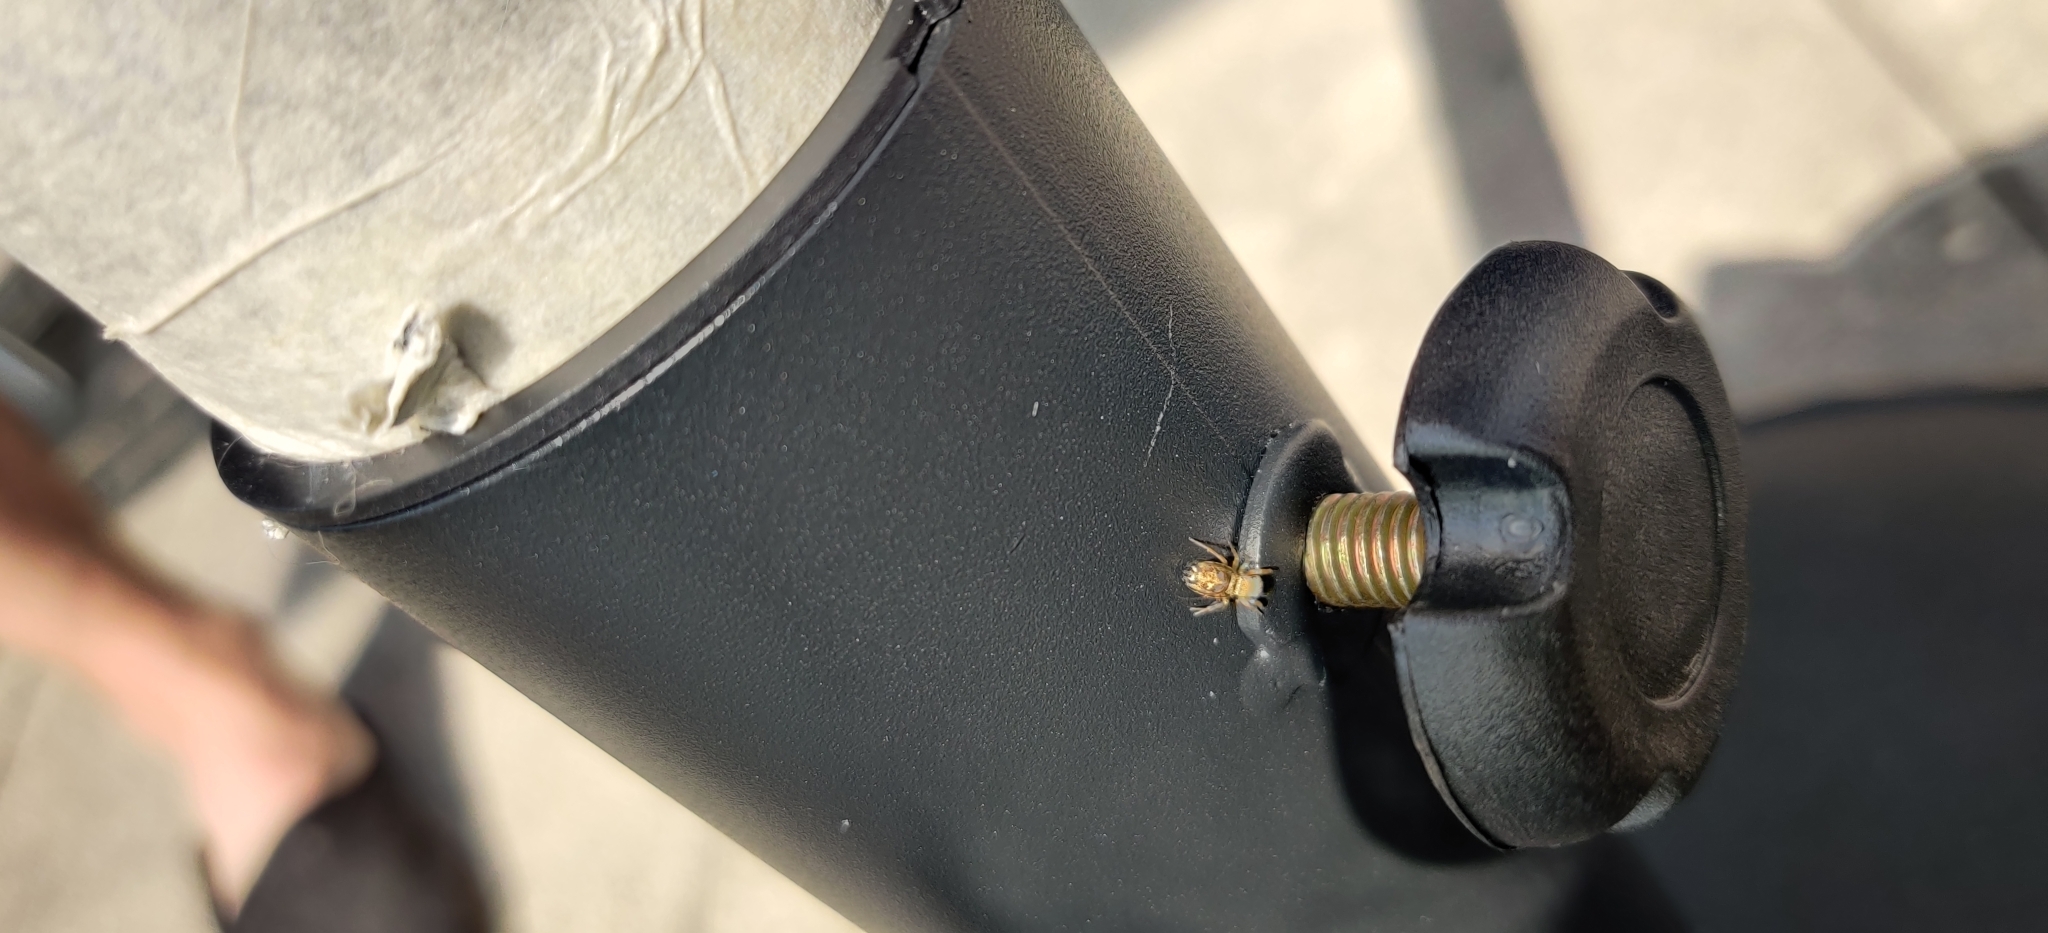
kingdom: Animalia
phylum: Arthropoda
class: Arachnida
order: Araneae
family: Salticidae
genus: Heliophanus
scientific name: Heliophanus tribulosus
